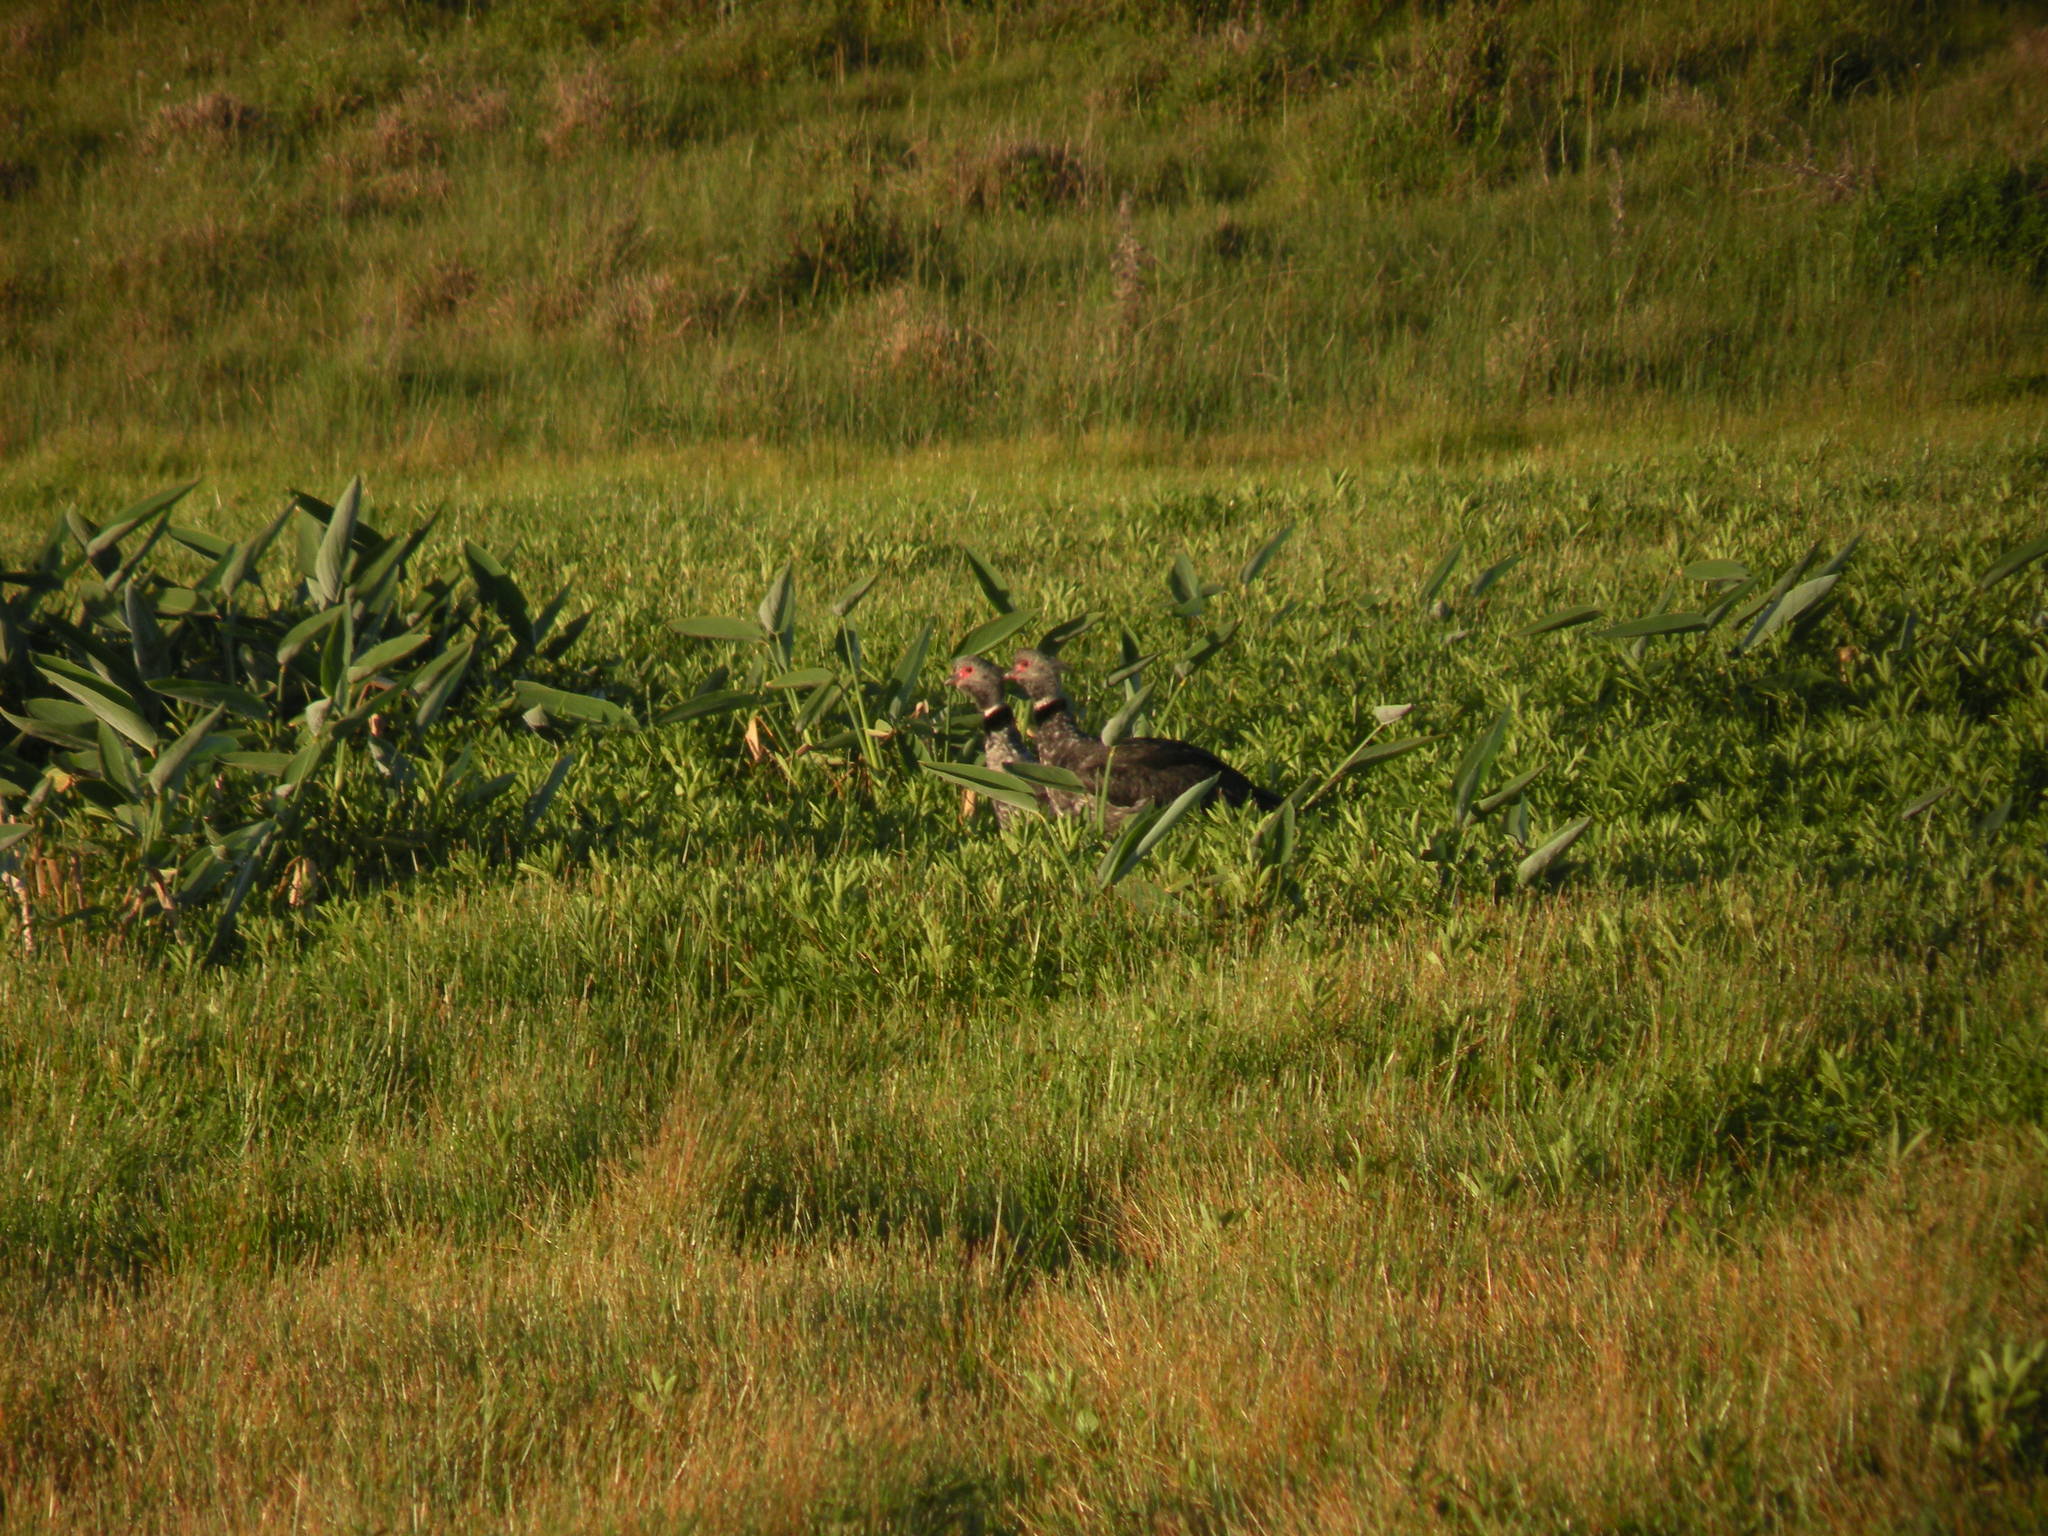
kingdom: Animalia
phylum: Chordata
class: Aves
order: Anseriformes
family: Anhimidae
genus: Chauna
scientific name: Chauna torquata
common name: Southern screamer
